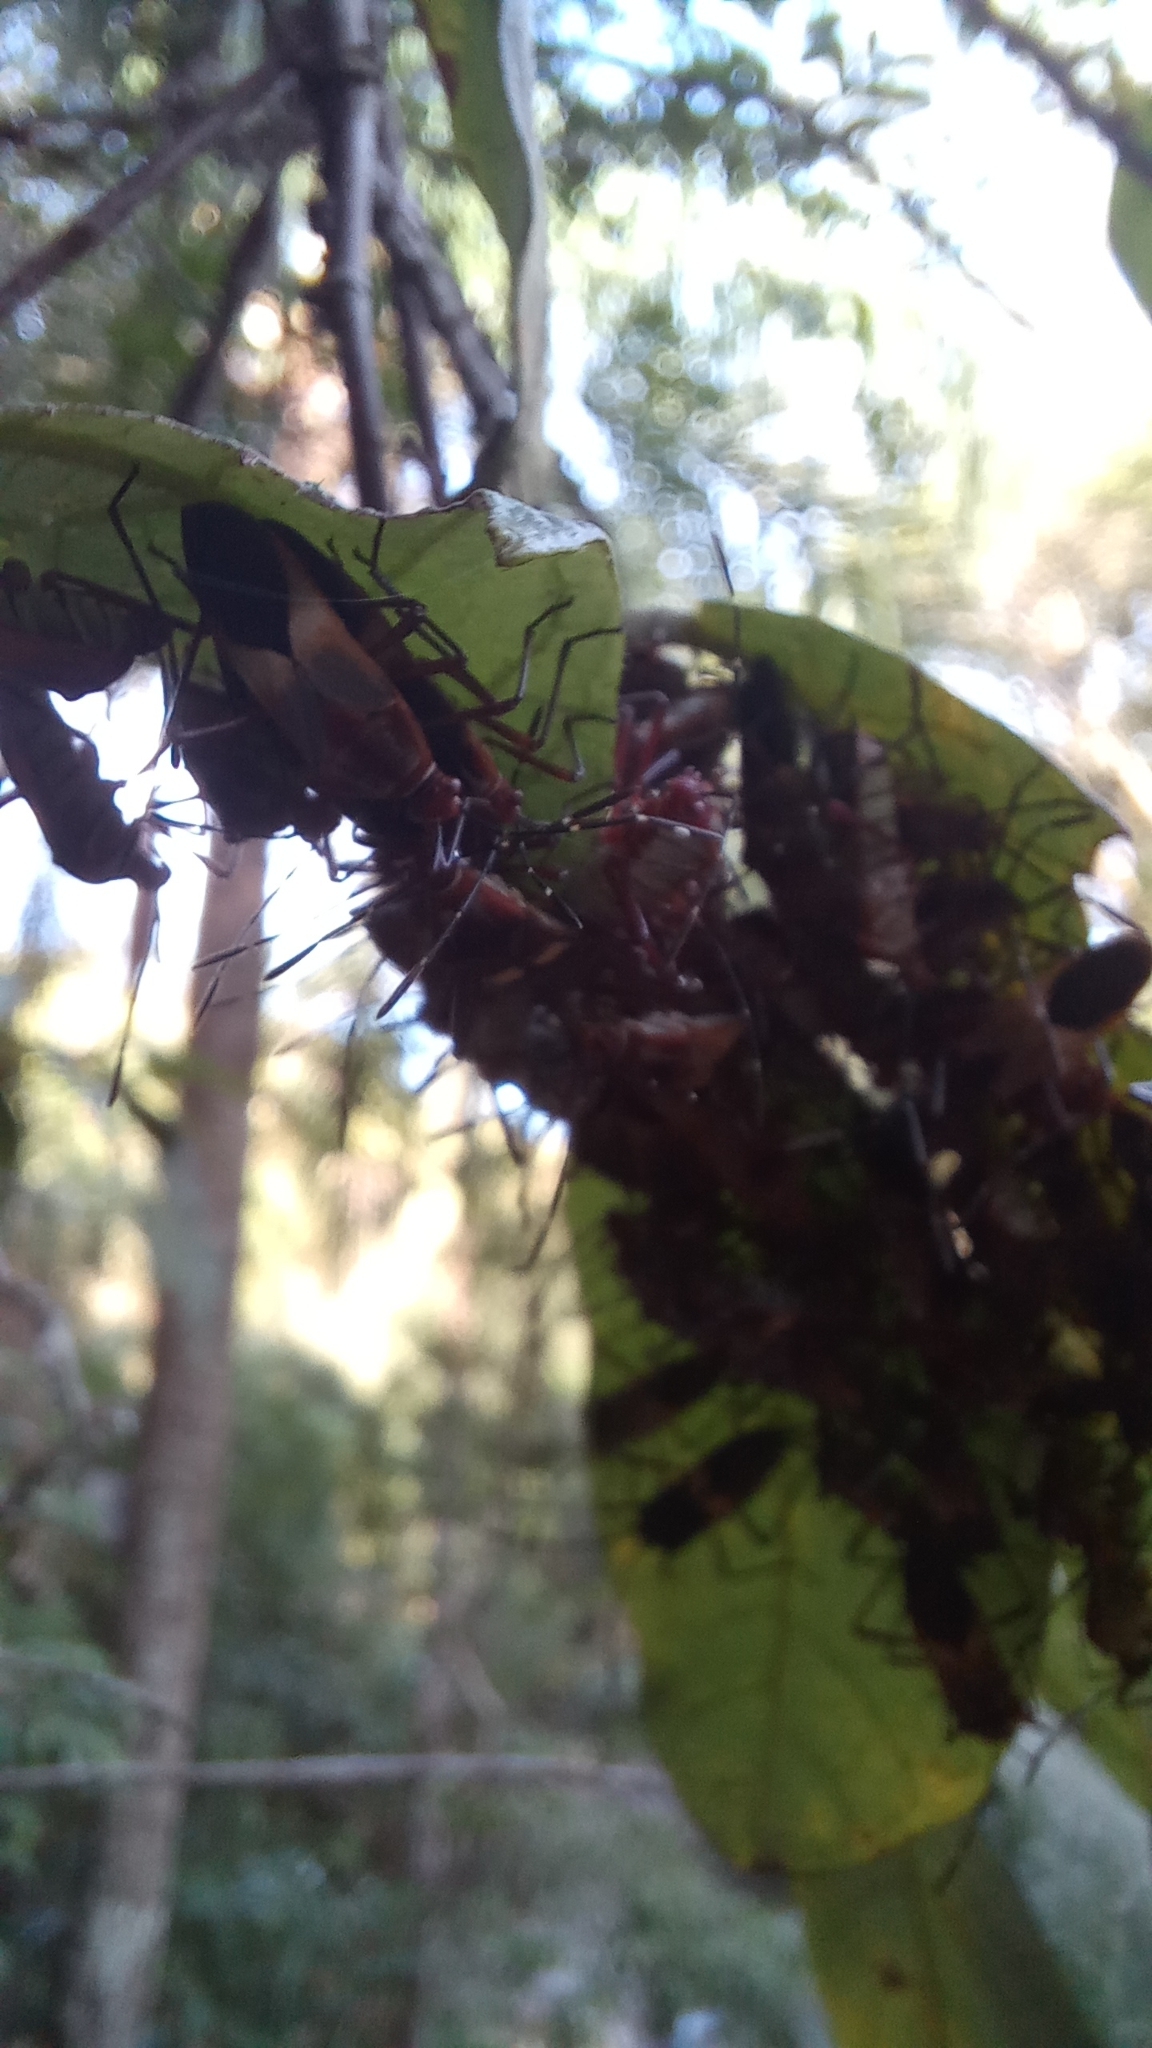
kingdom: Animalia
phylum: Arthropoda
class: Insecta
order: Hemiptera
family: Coreidae
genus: Hypselonotus
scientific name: Hypselonotus interruptus
